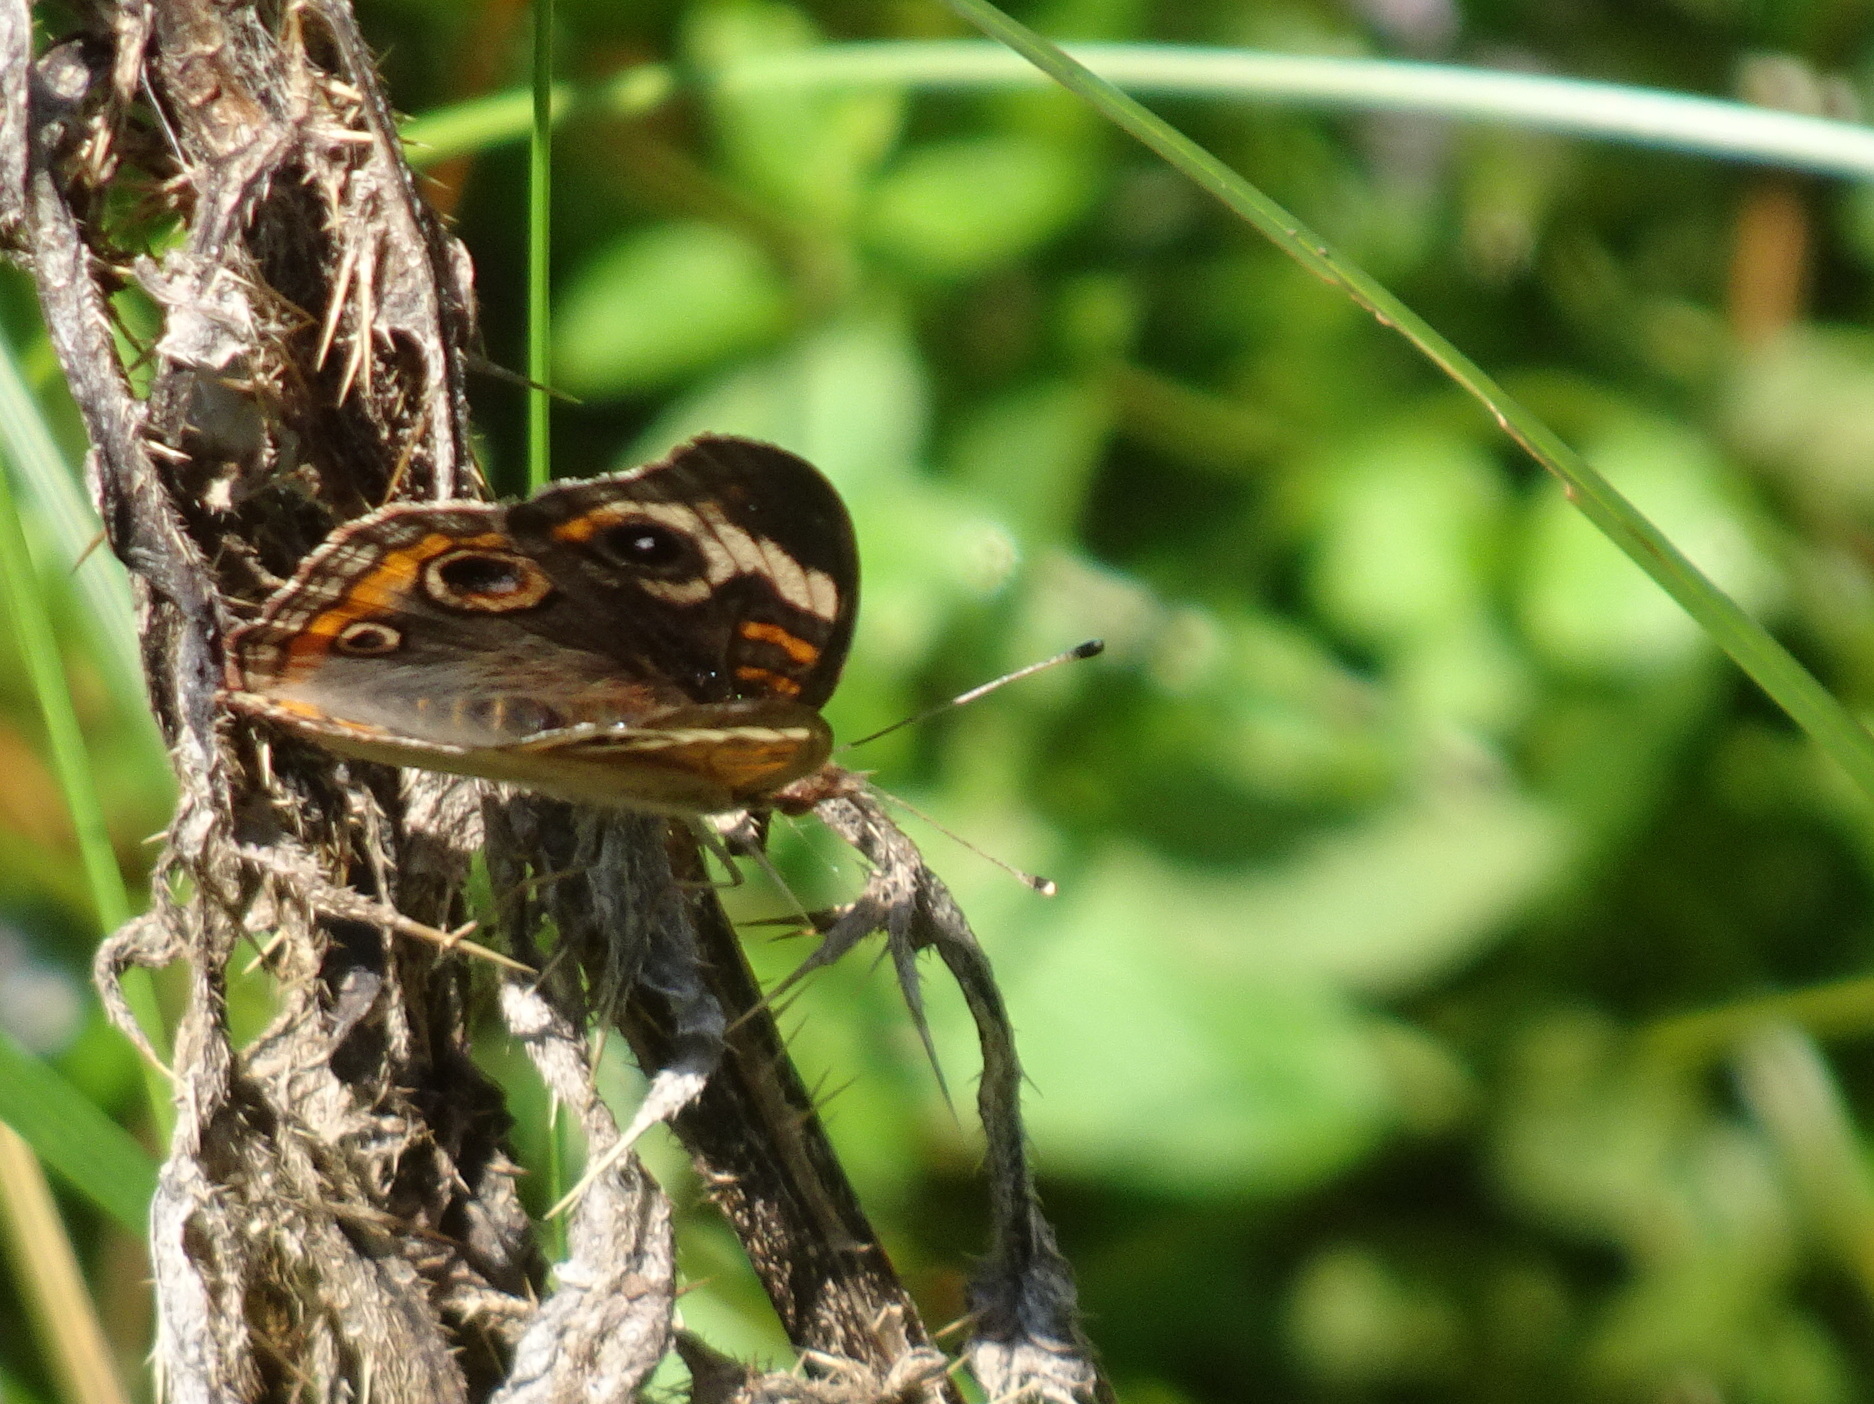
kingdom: Animalia
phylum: Arthropoda
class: Insecta
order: Lepidoptera
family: Nymphalidae
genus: Junonia
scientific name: Junonia coenia
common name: Common buckeye
